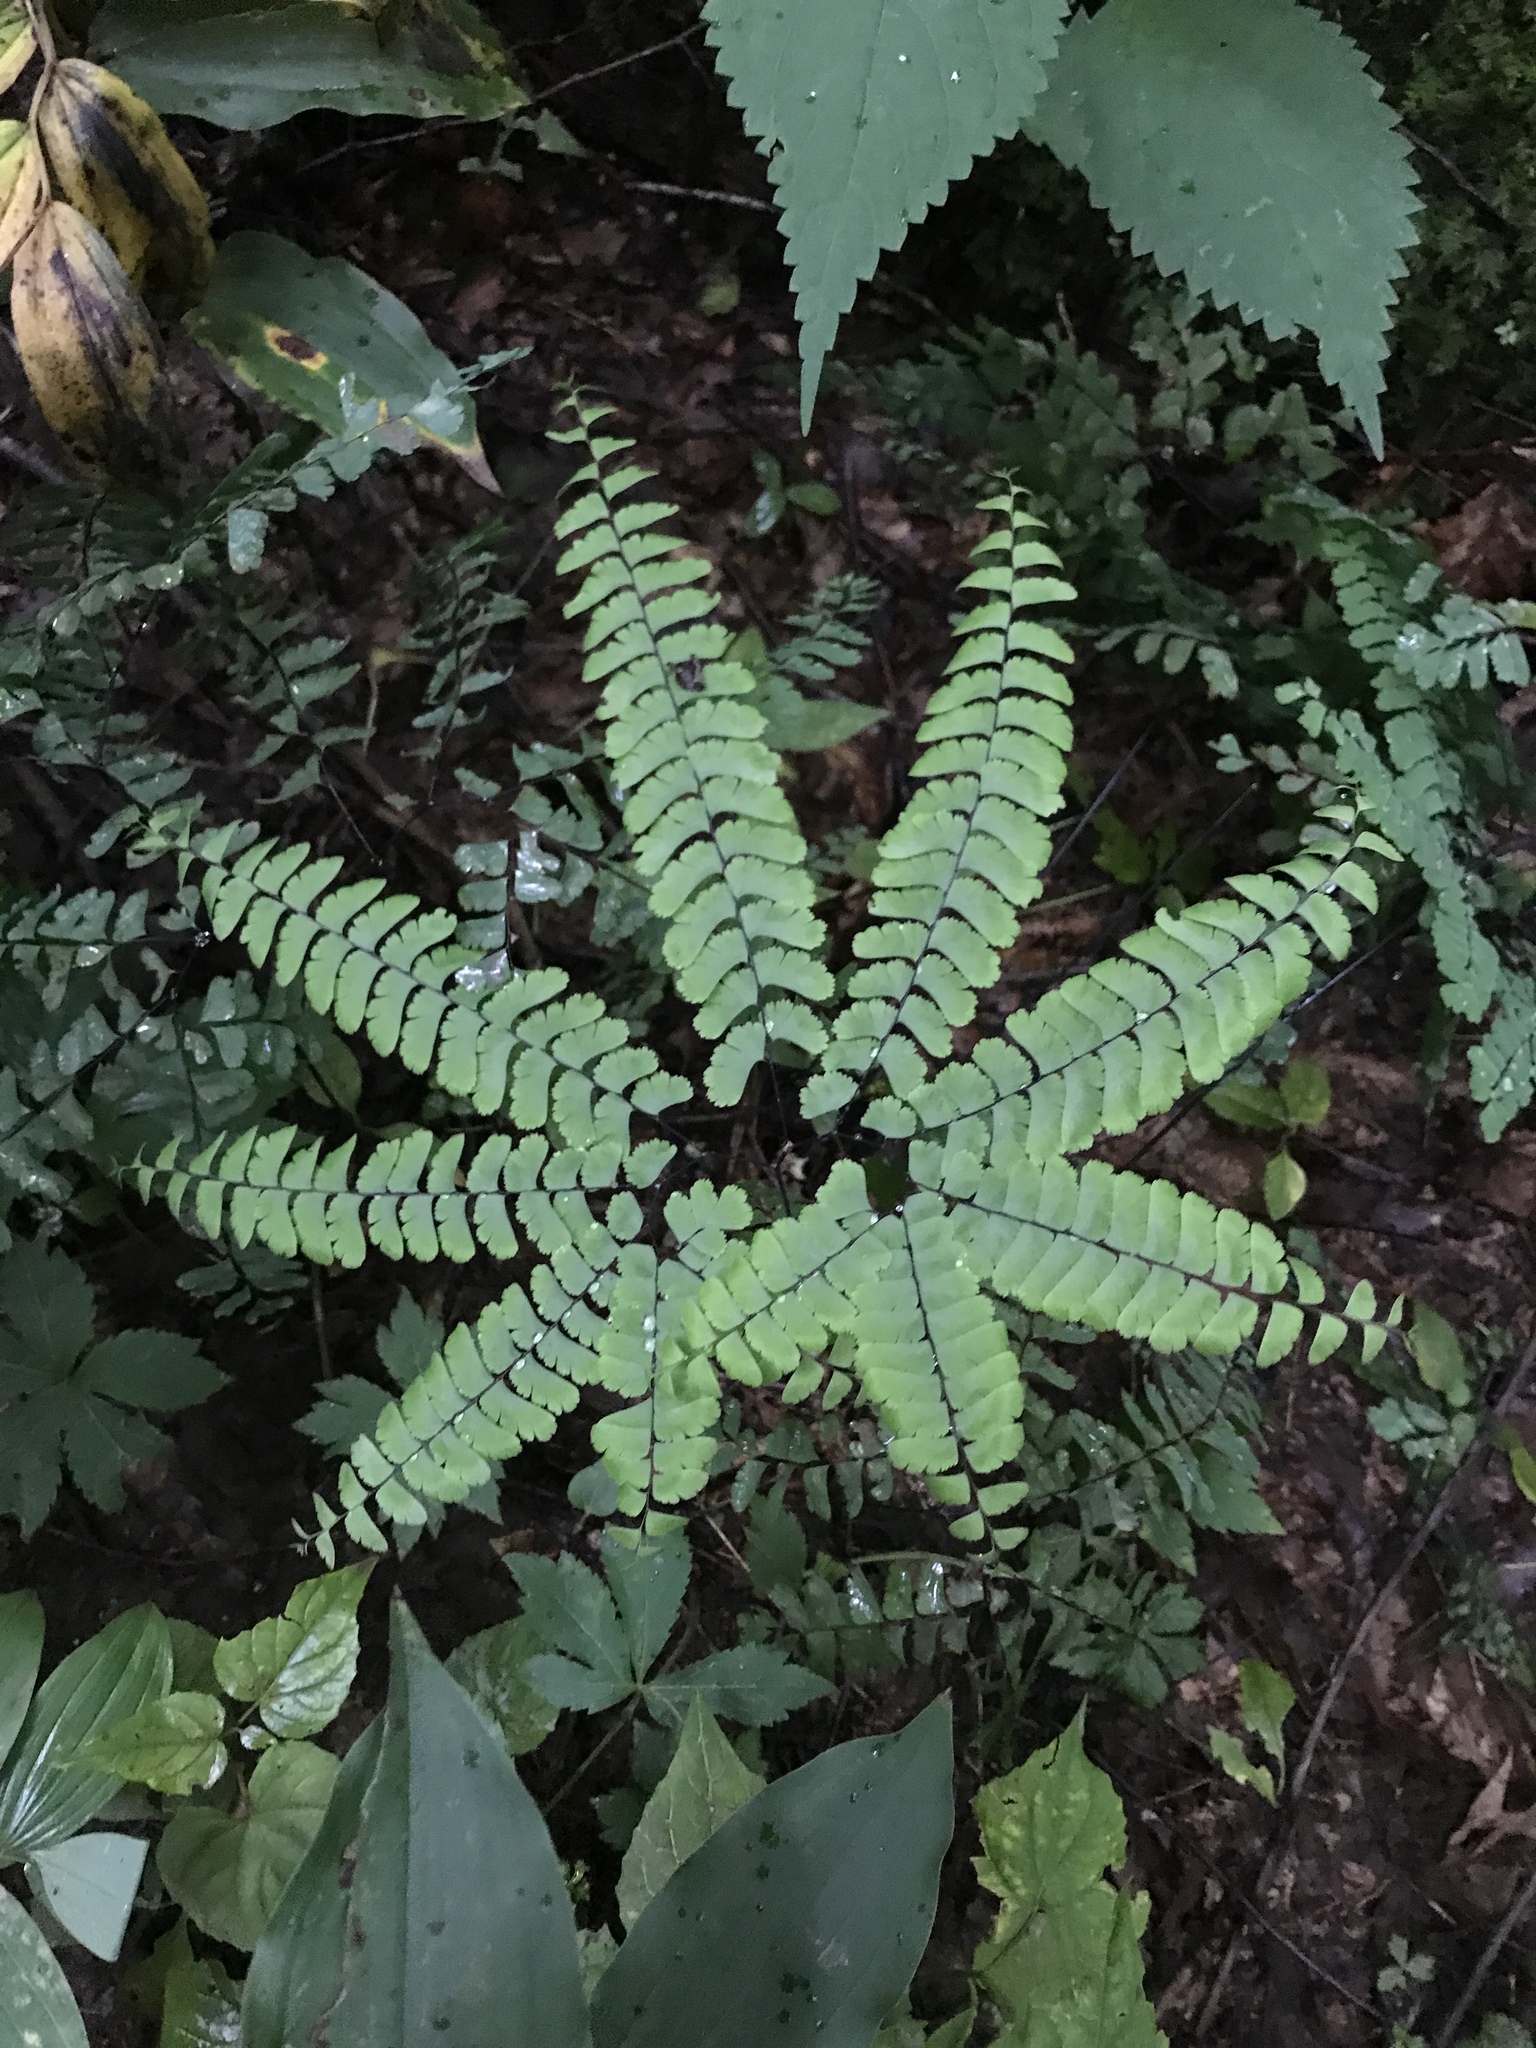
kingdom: Plantae
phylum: Tracheophyta
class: Polypodiopsida
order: Polypodiales
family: Pteridaceae
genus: Adiantum
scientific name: Adiantum pedatum
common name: Five-finger fern
